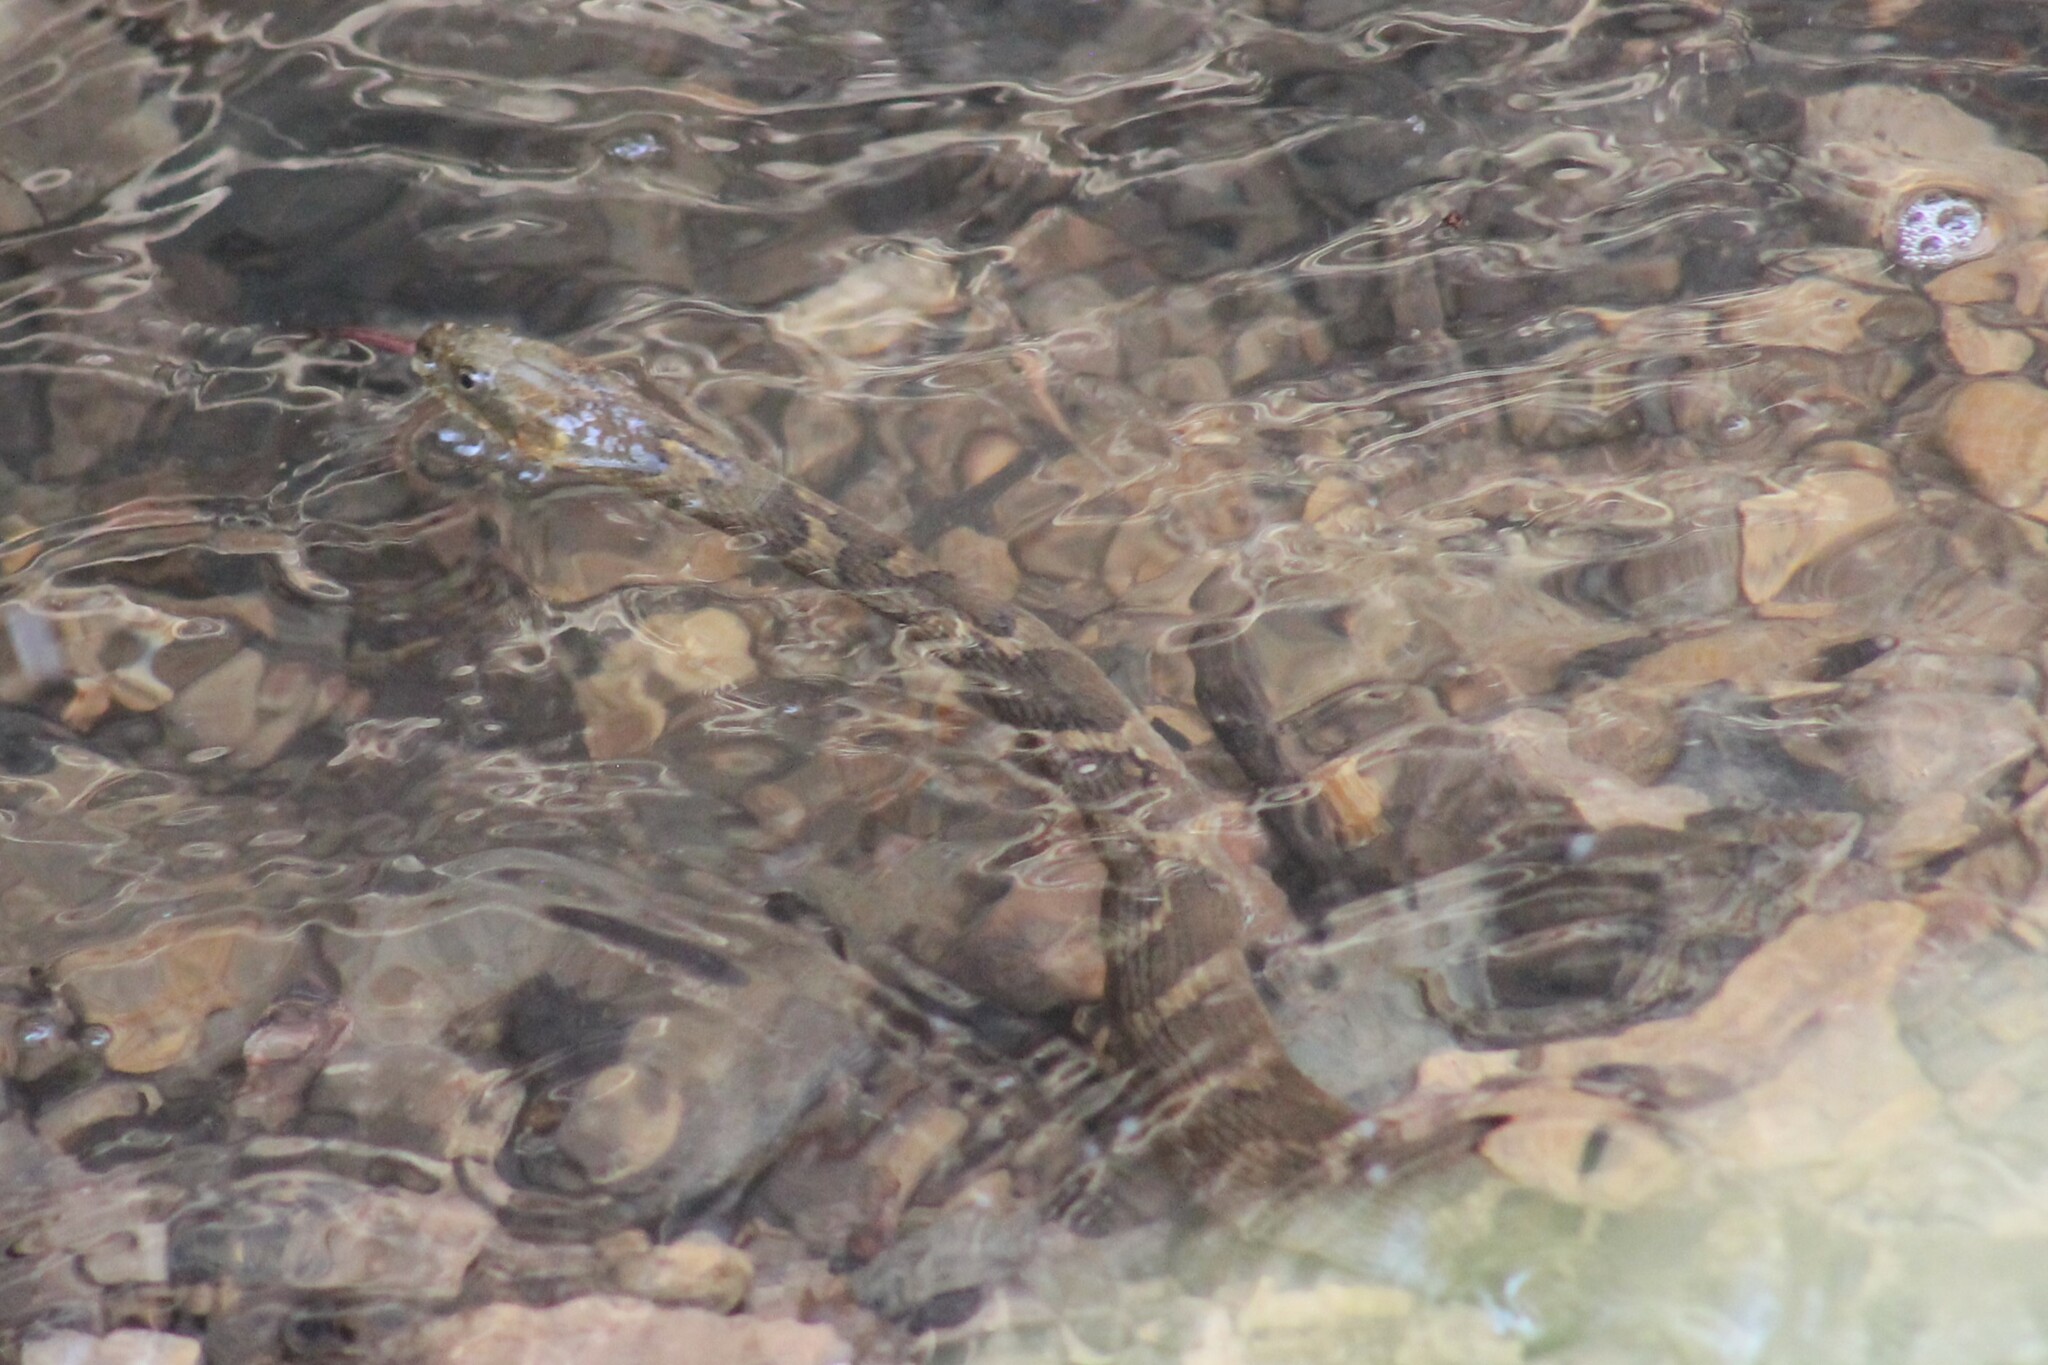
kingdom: Animalia
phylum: Chordata
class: Squamata
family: Colubridae
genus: Nerodia
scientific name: Nerodia sipedon
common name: Northern water snake
